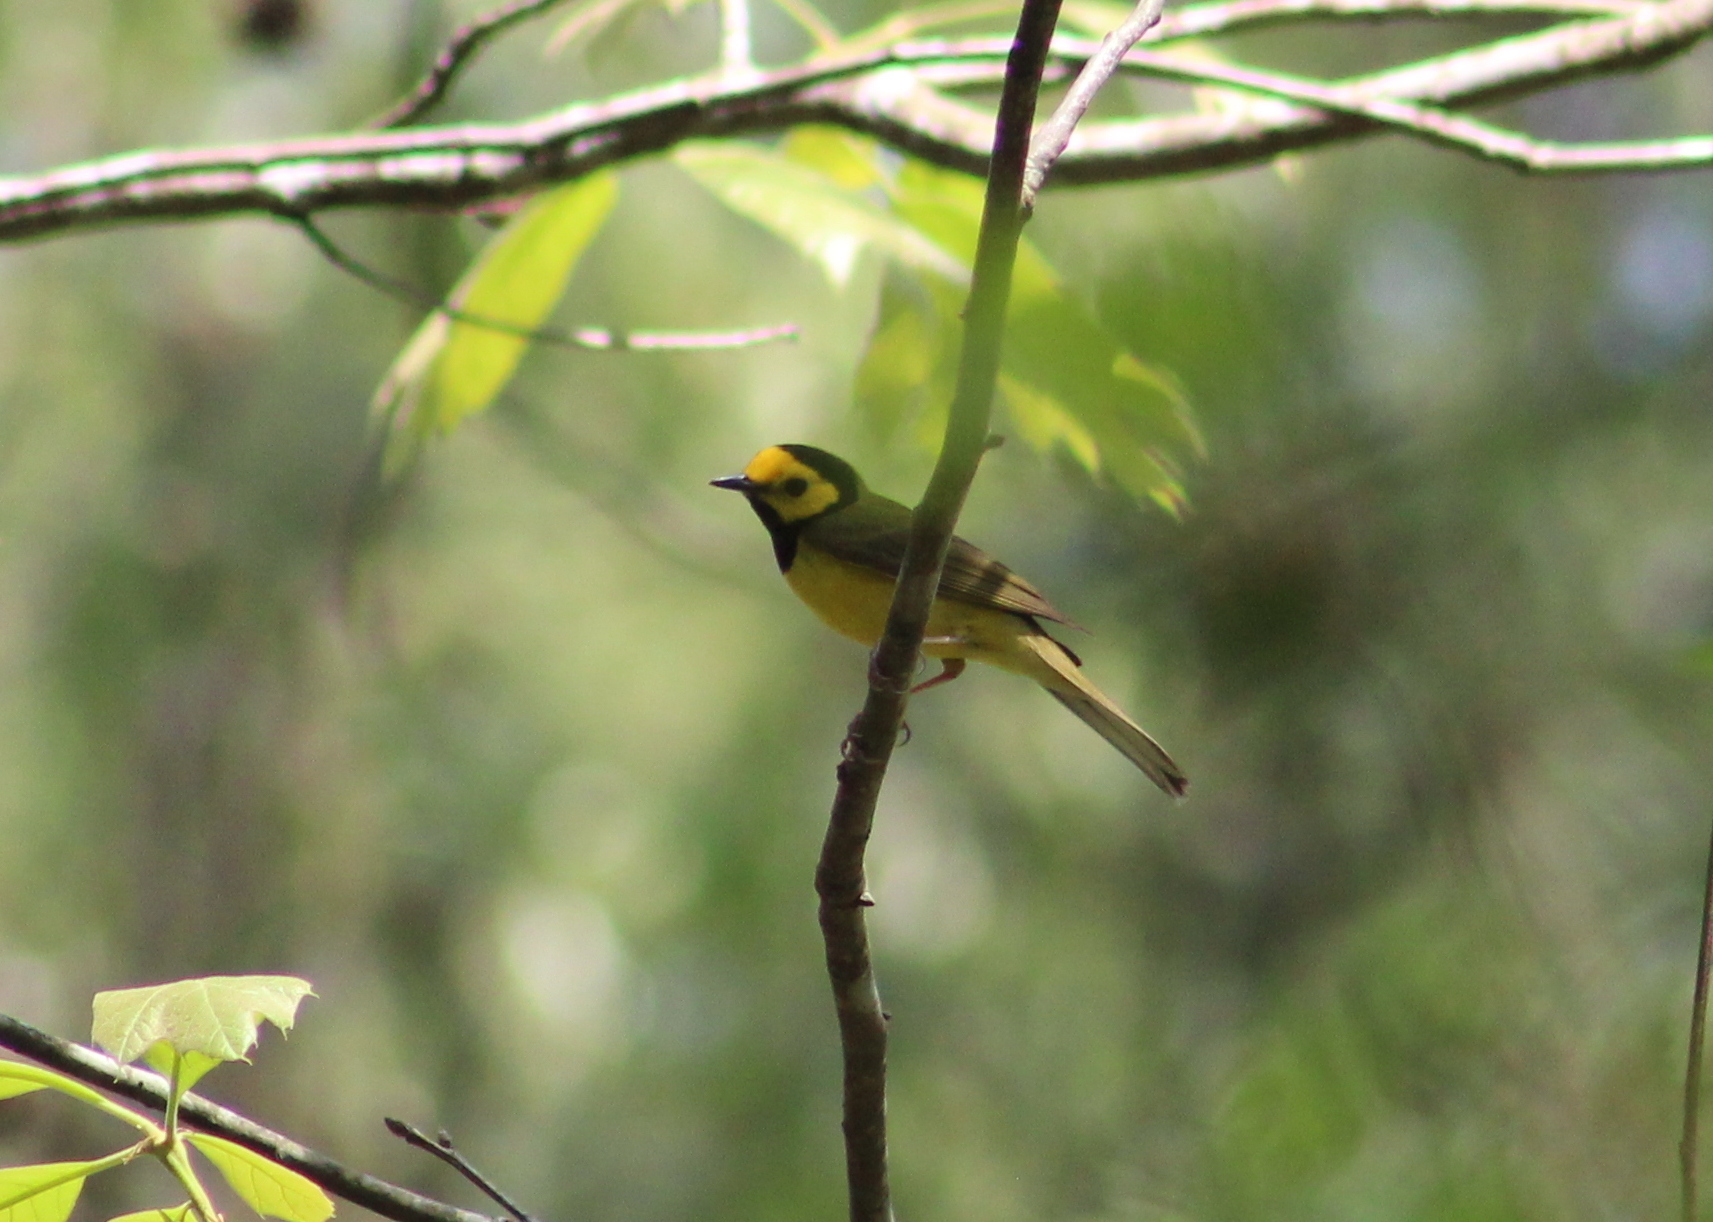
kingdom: Animalia
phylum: Chordata
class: Aves
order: Passeriformes
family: Parulidae
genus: Setophaga
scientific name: Setophaga citrina
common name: Hooded warbler
